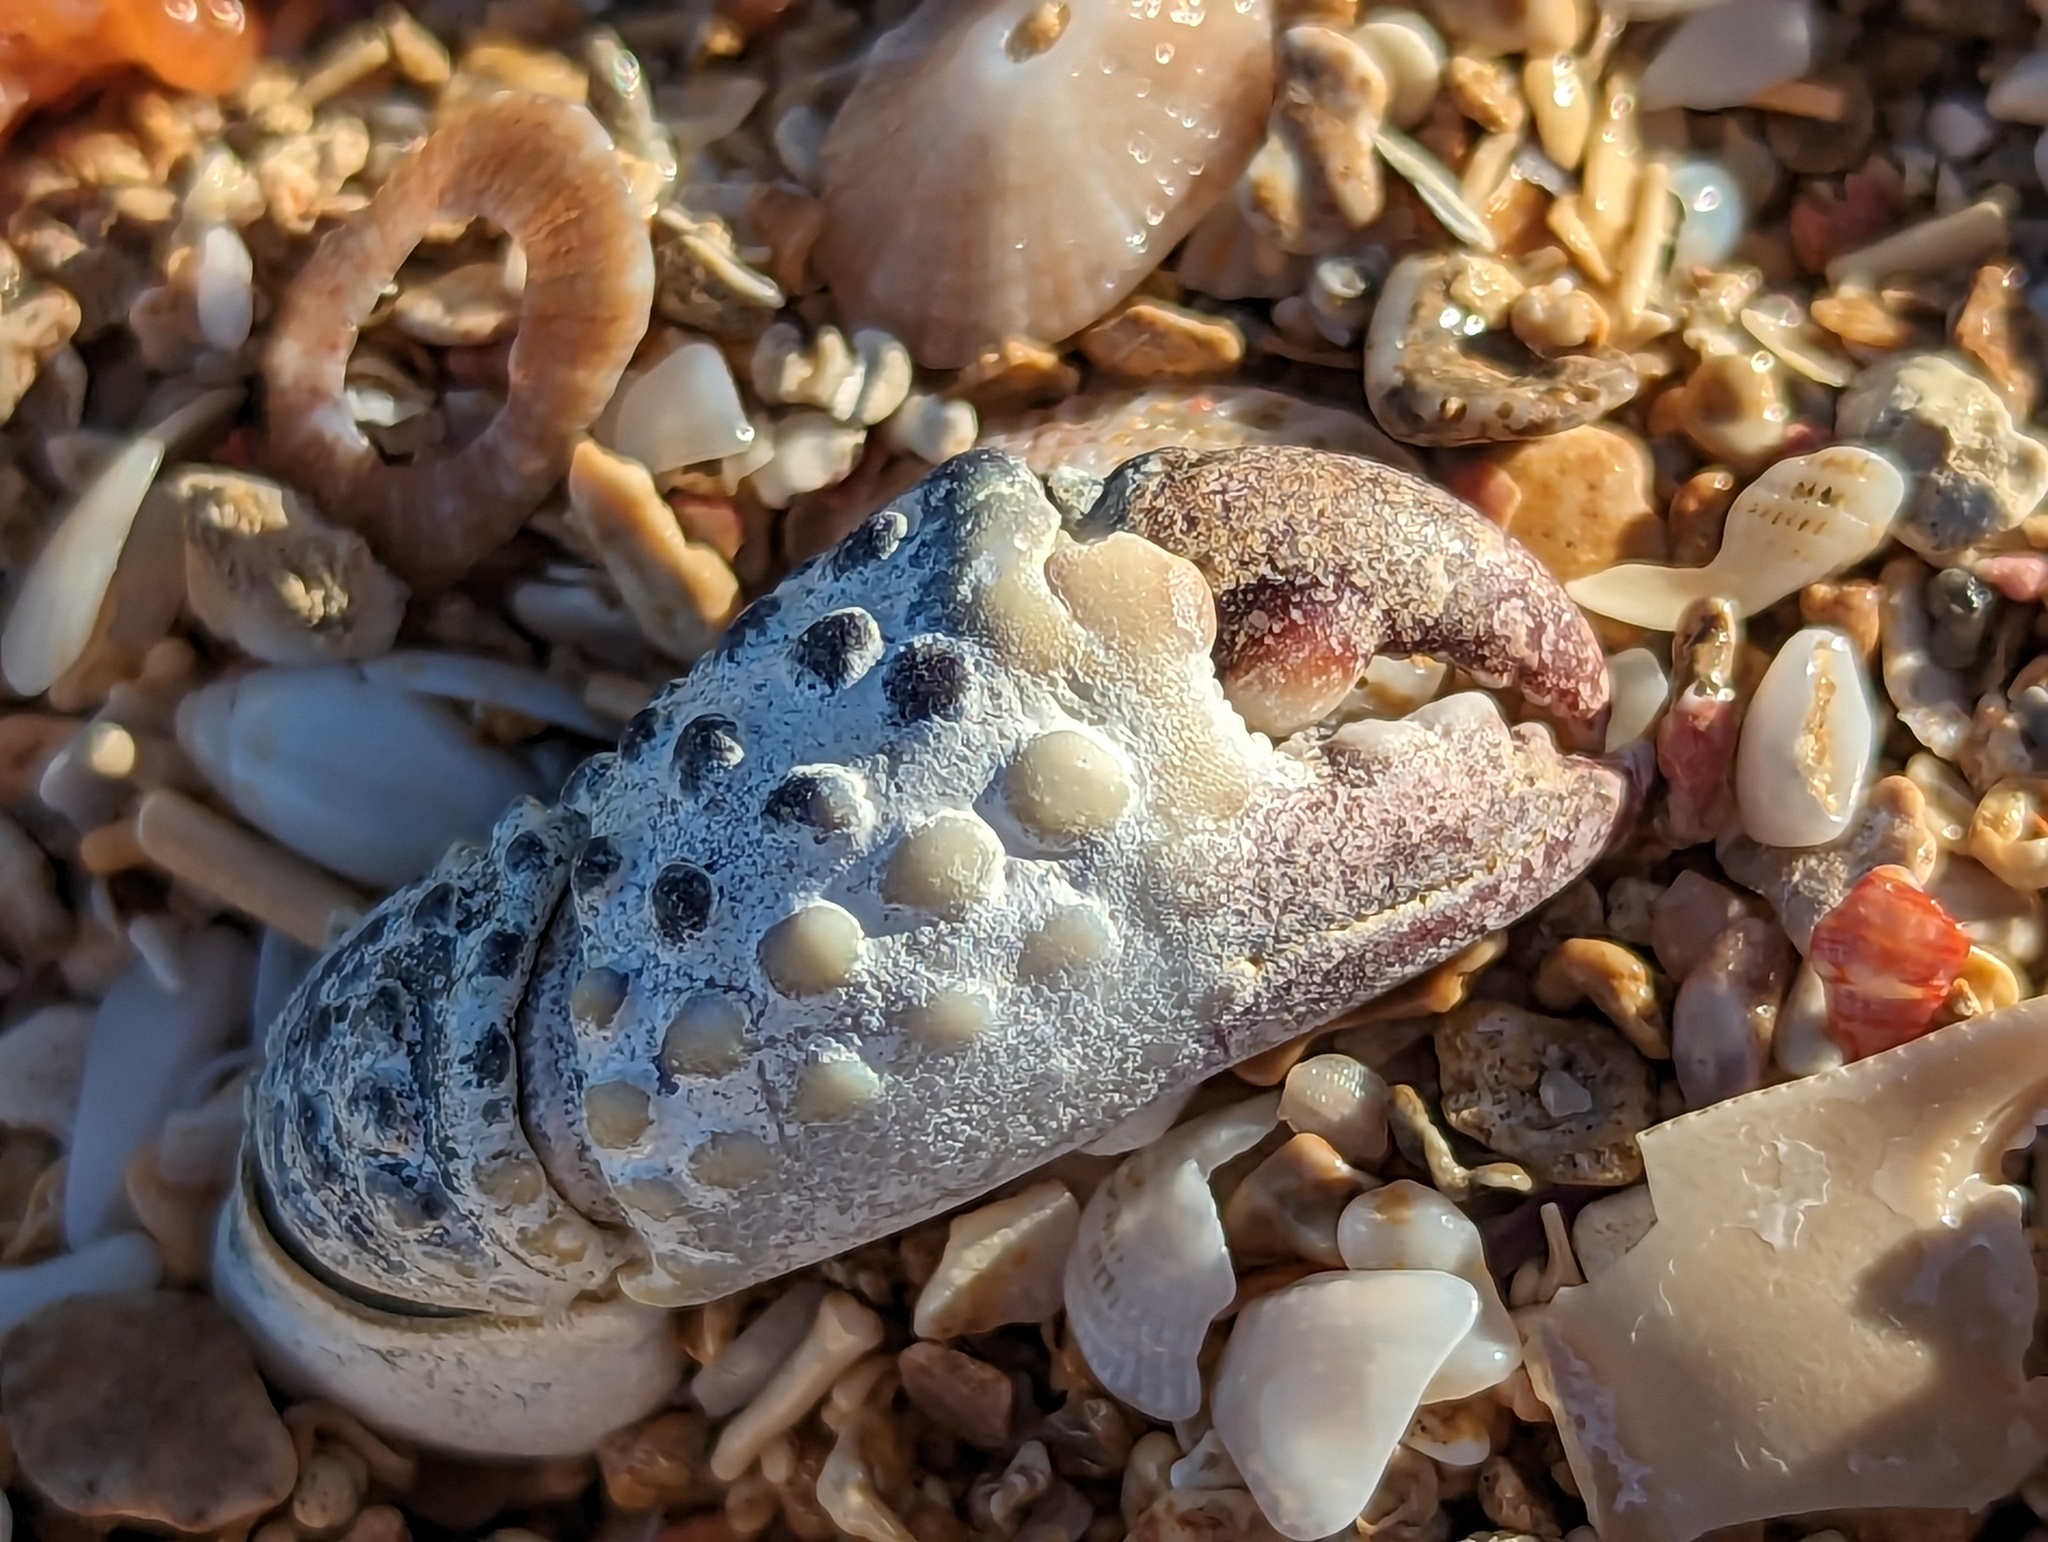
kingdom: Animalia
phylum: Arthropoda
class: Malacostraca
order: Decapoda
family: Eriphiidae
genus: Eriphia
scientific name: Eriphia gonagra
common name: Calico crab
